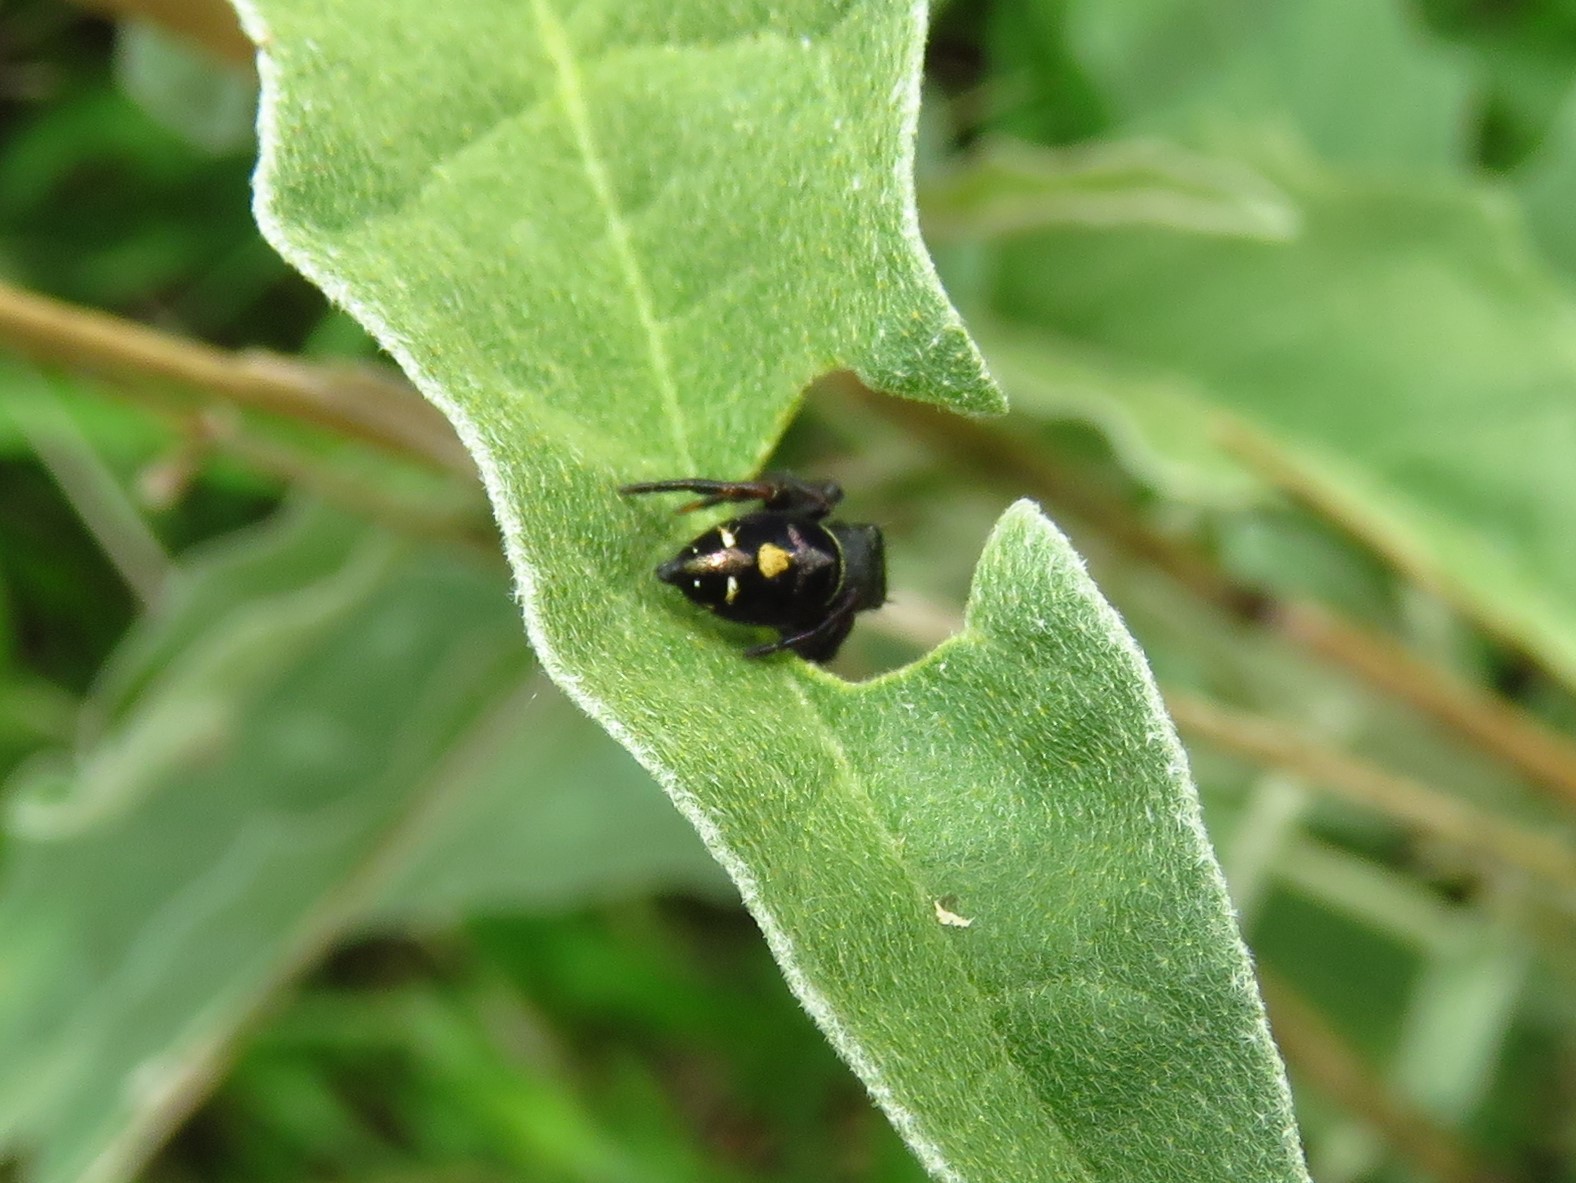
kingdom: Animalia
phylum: Arthropoda
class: Arachnida
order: Araneae
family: Salticidae
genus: Phidippus
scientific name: Phidippus audax
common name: Bold jumper
